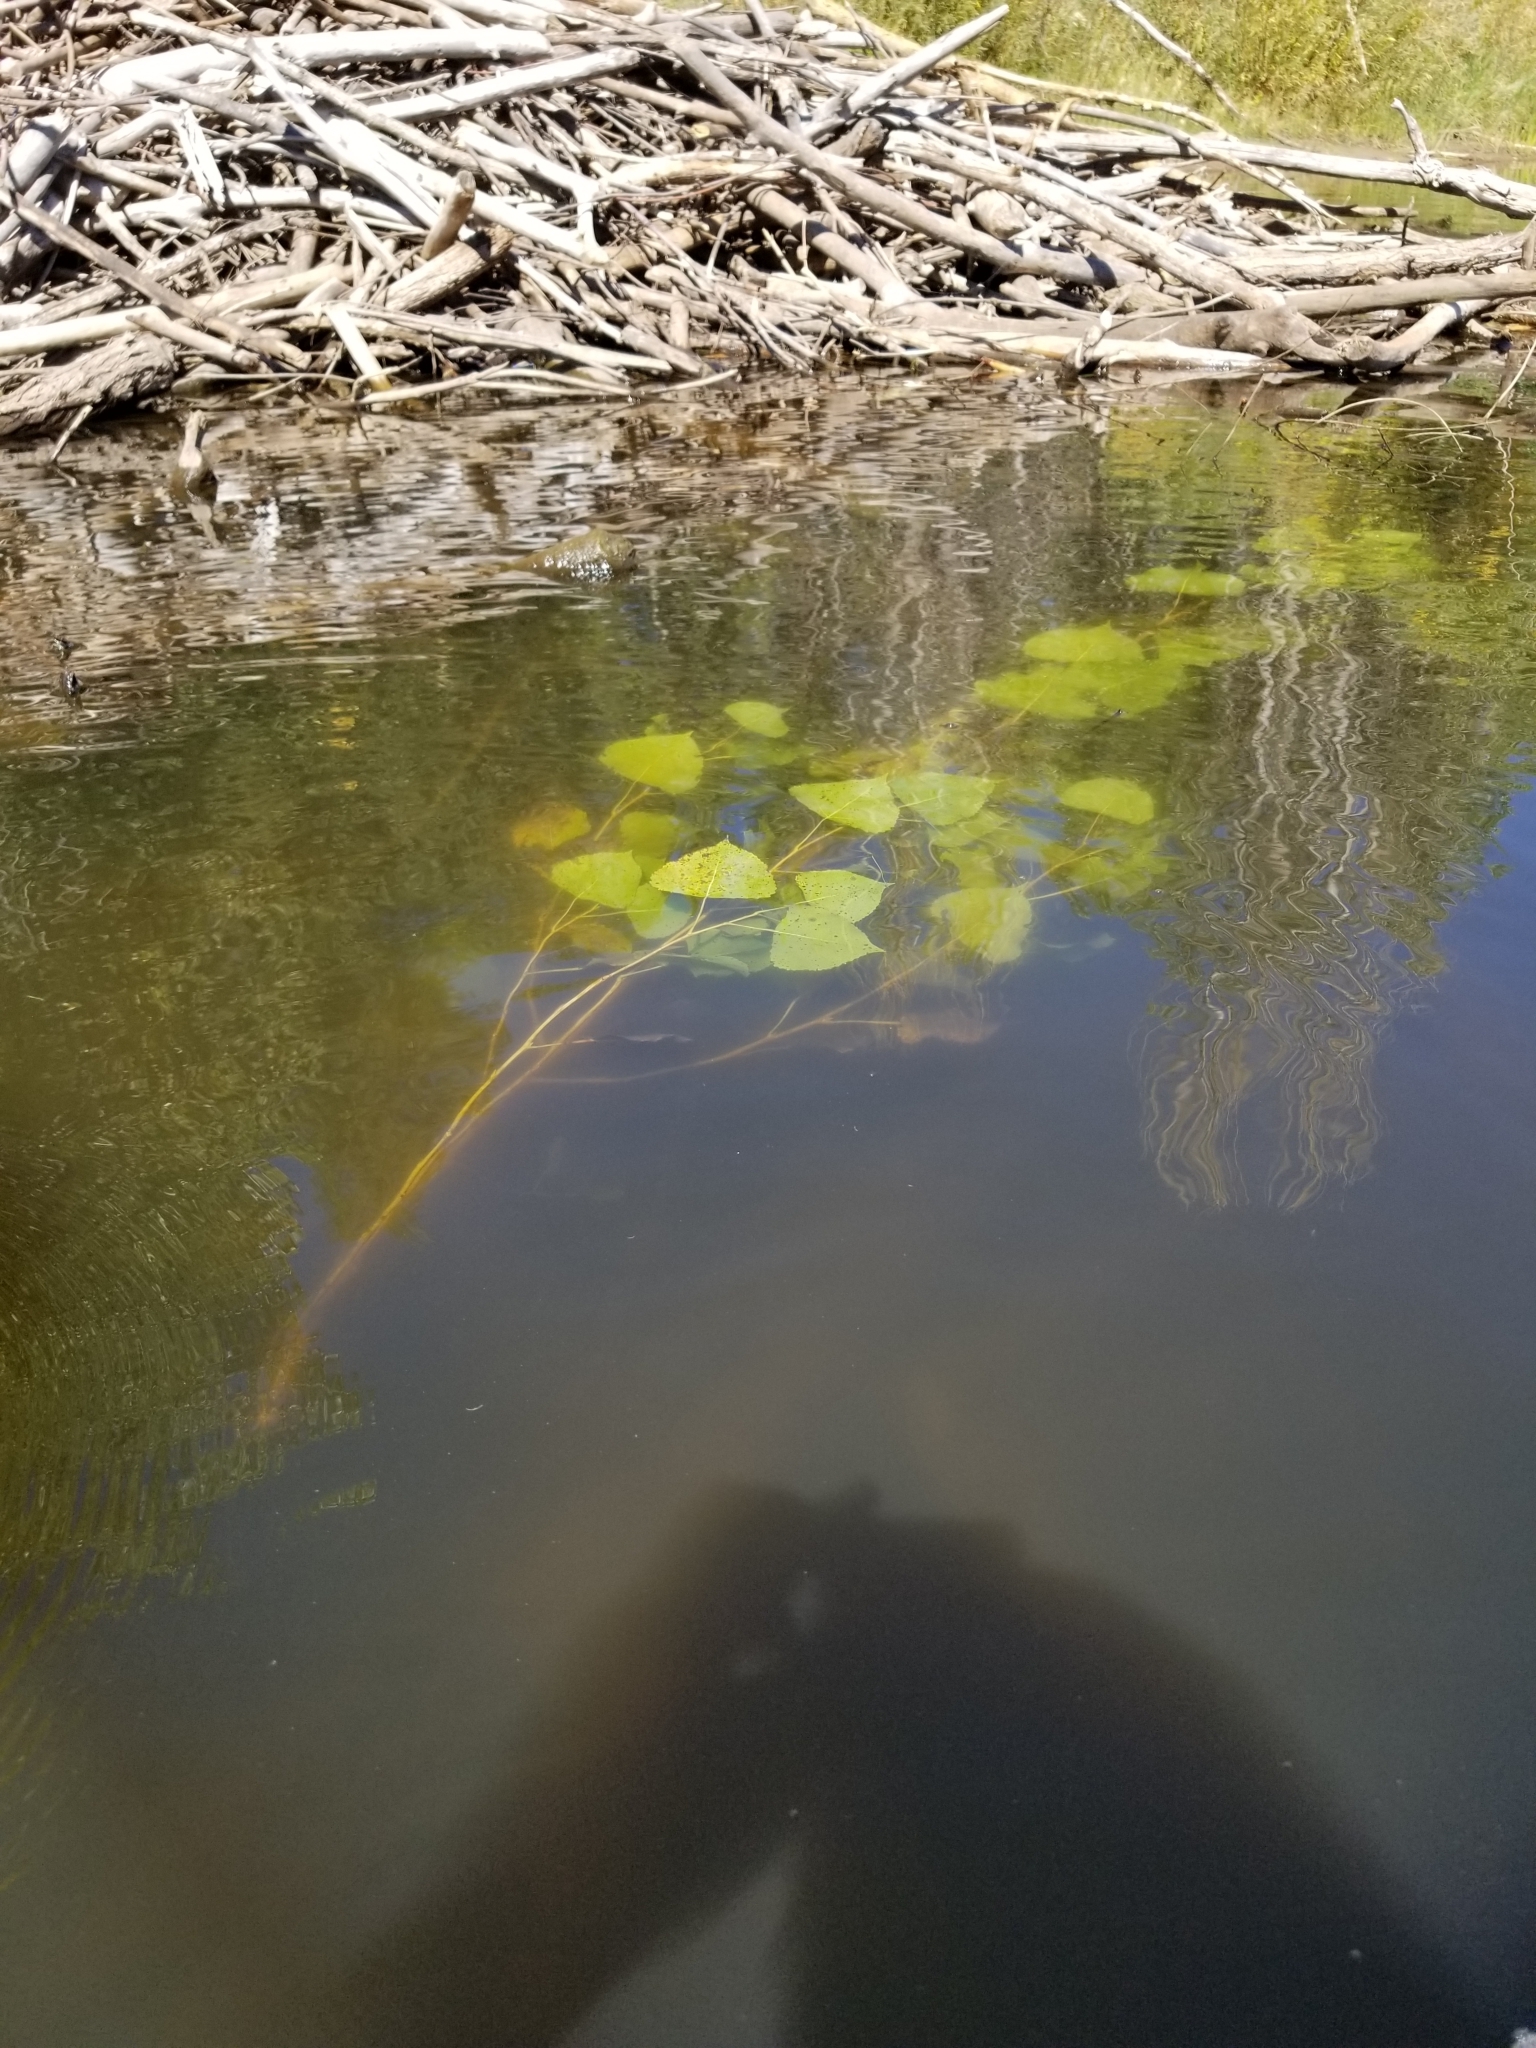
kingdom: Animalia
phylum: Chordata
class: Mammalia
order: Rodentia
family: Castoridae
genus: Castor
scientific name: Castor canadensis
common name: American beaver
